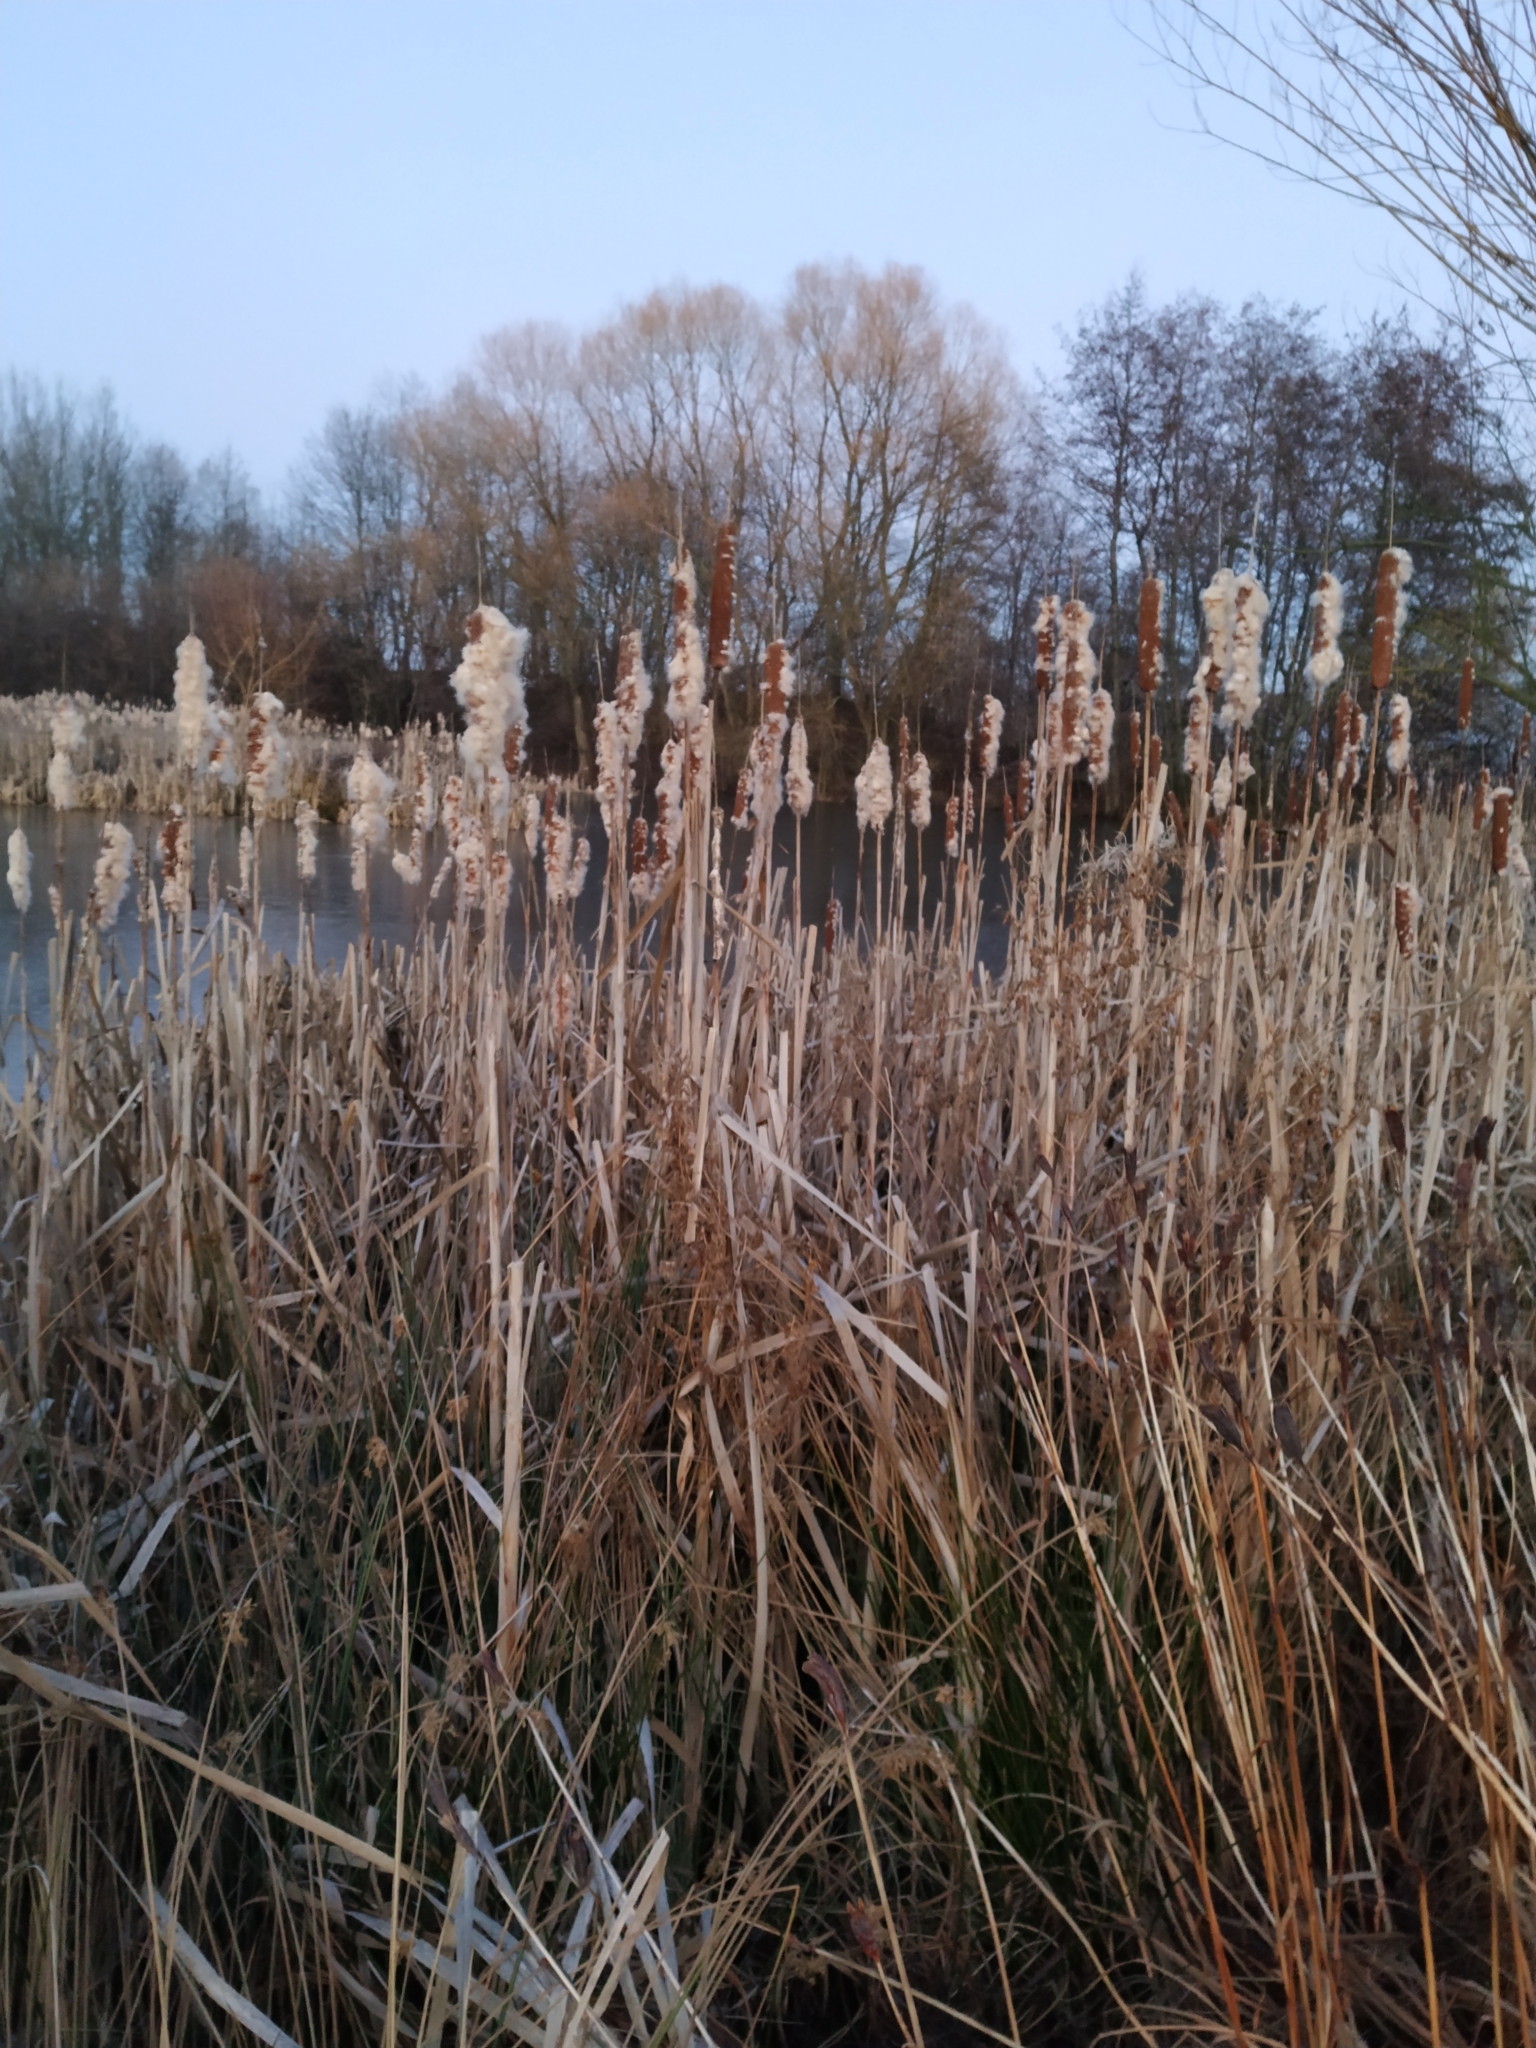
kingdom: Plantae
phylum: Tracheophyta
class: Liliopsida
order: Poales
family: Typhaceae
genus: Typha
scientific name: Typha latifolia
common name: Broadleaf cattail
